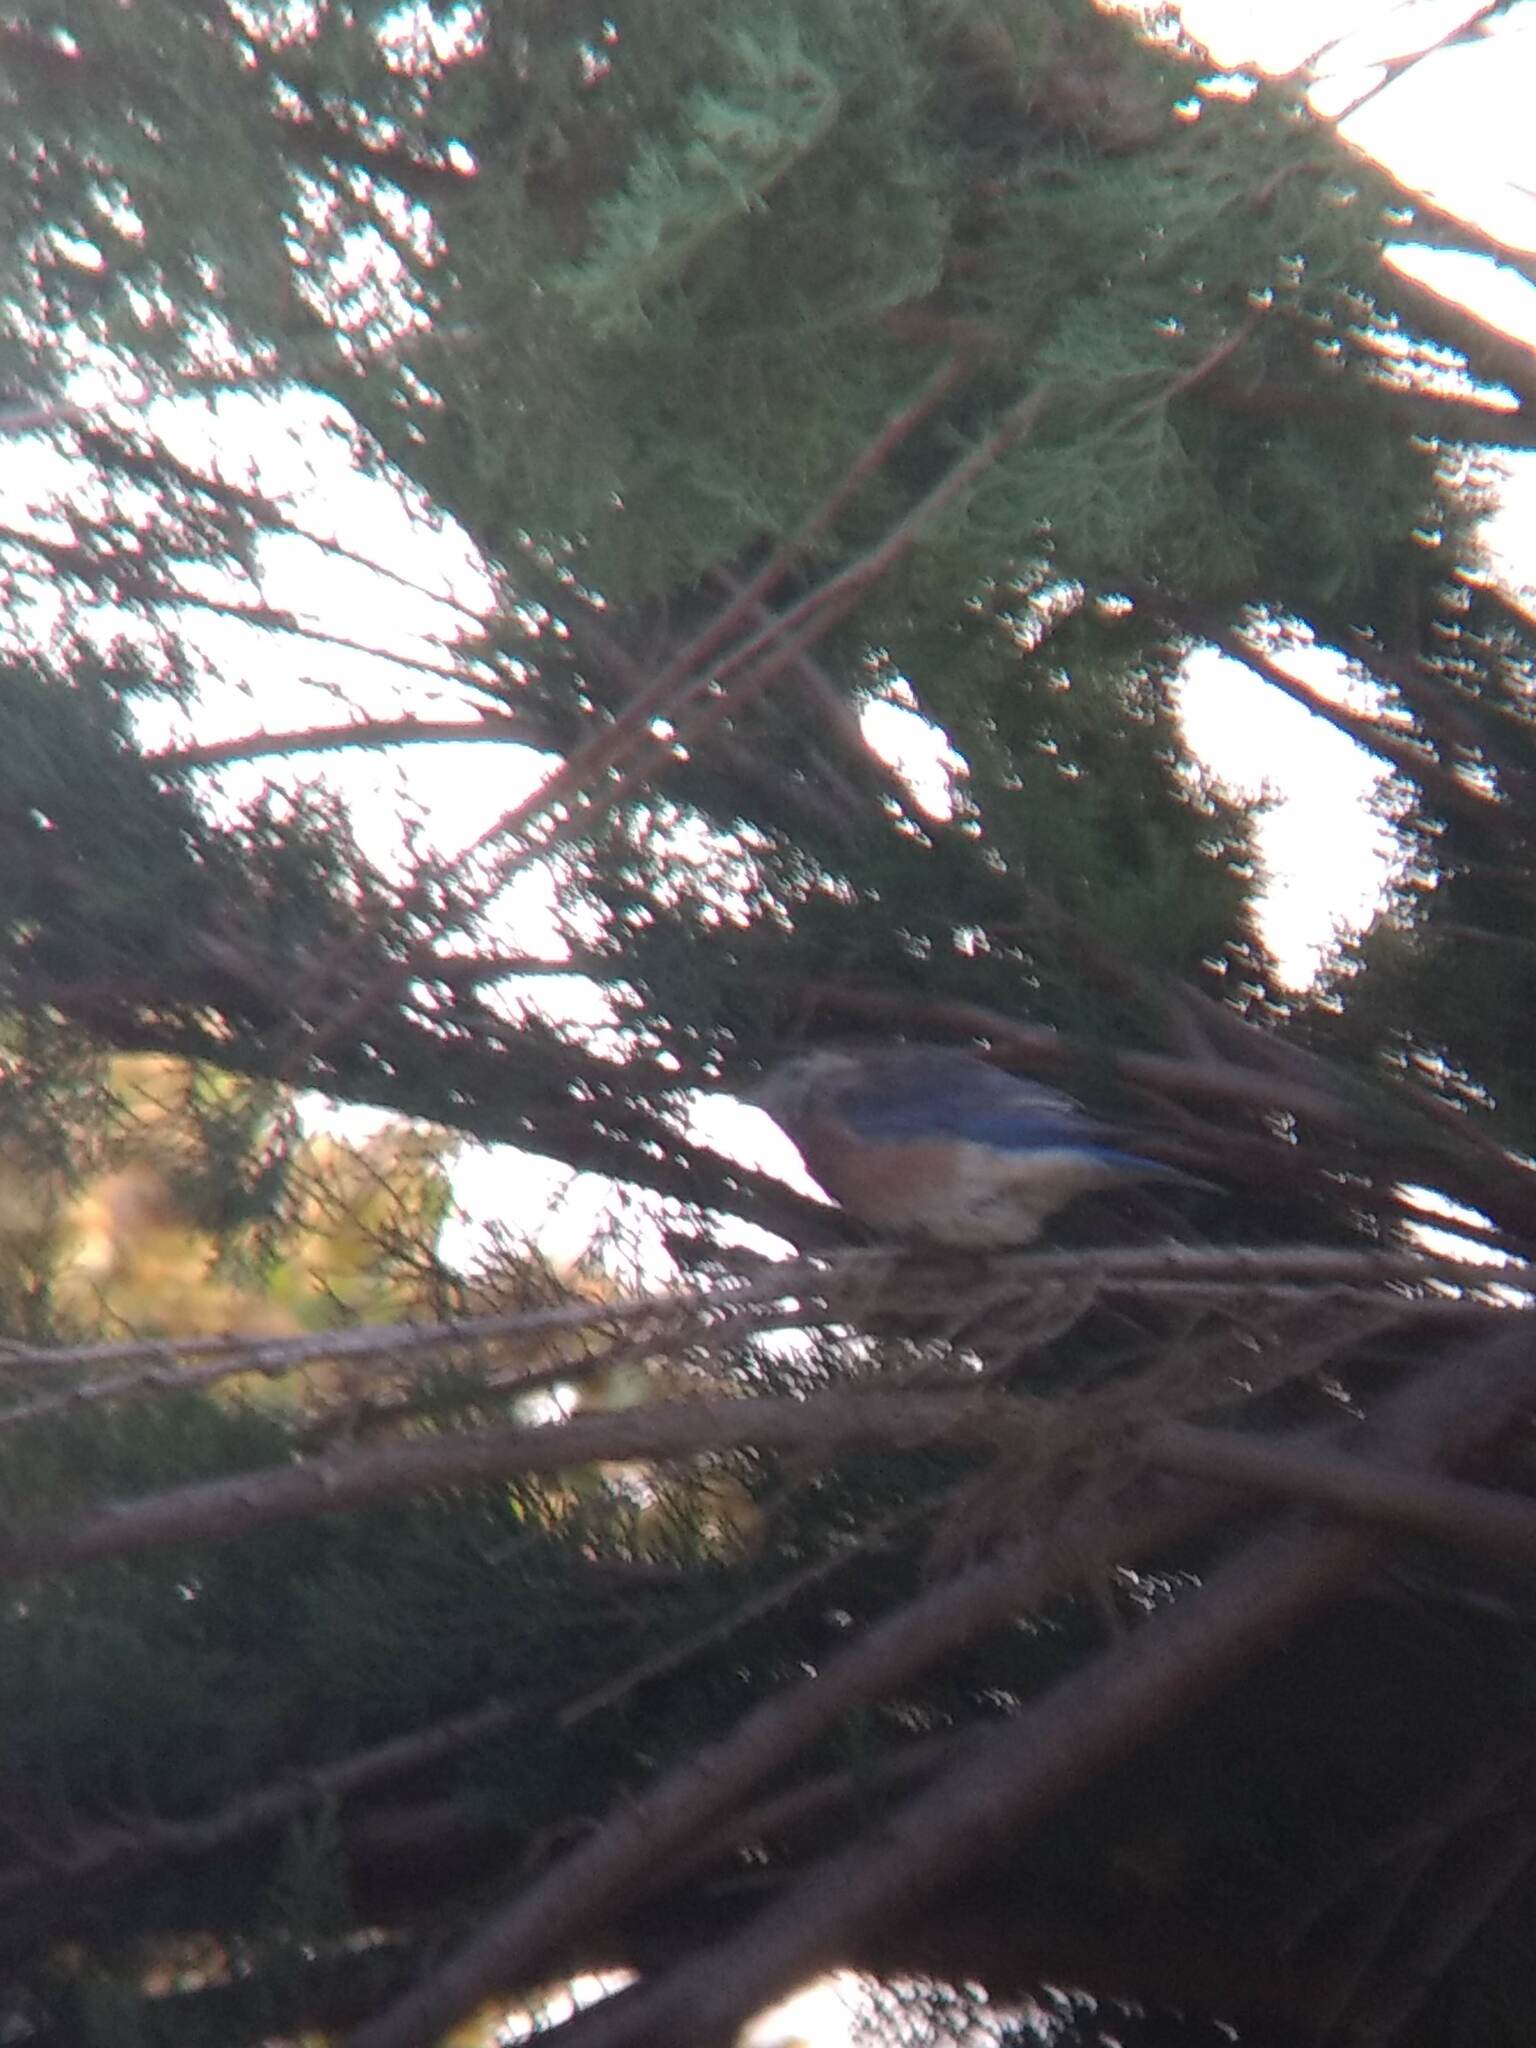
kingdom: Animalia
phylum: Chordata
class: Aves
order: Passeriformes
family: Turdidae
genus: Sialia
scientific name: Sialia mexicana
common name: Western bluebird
